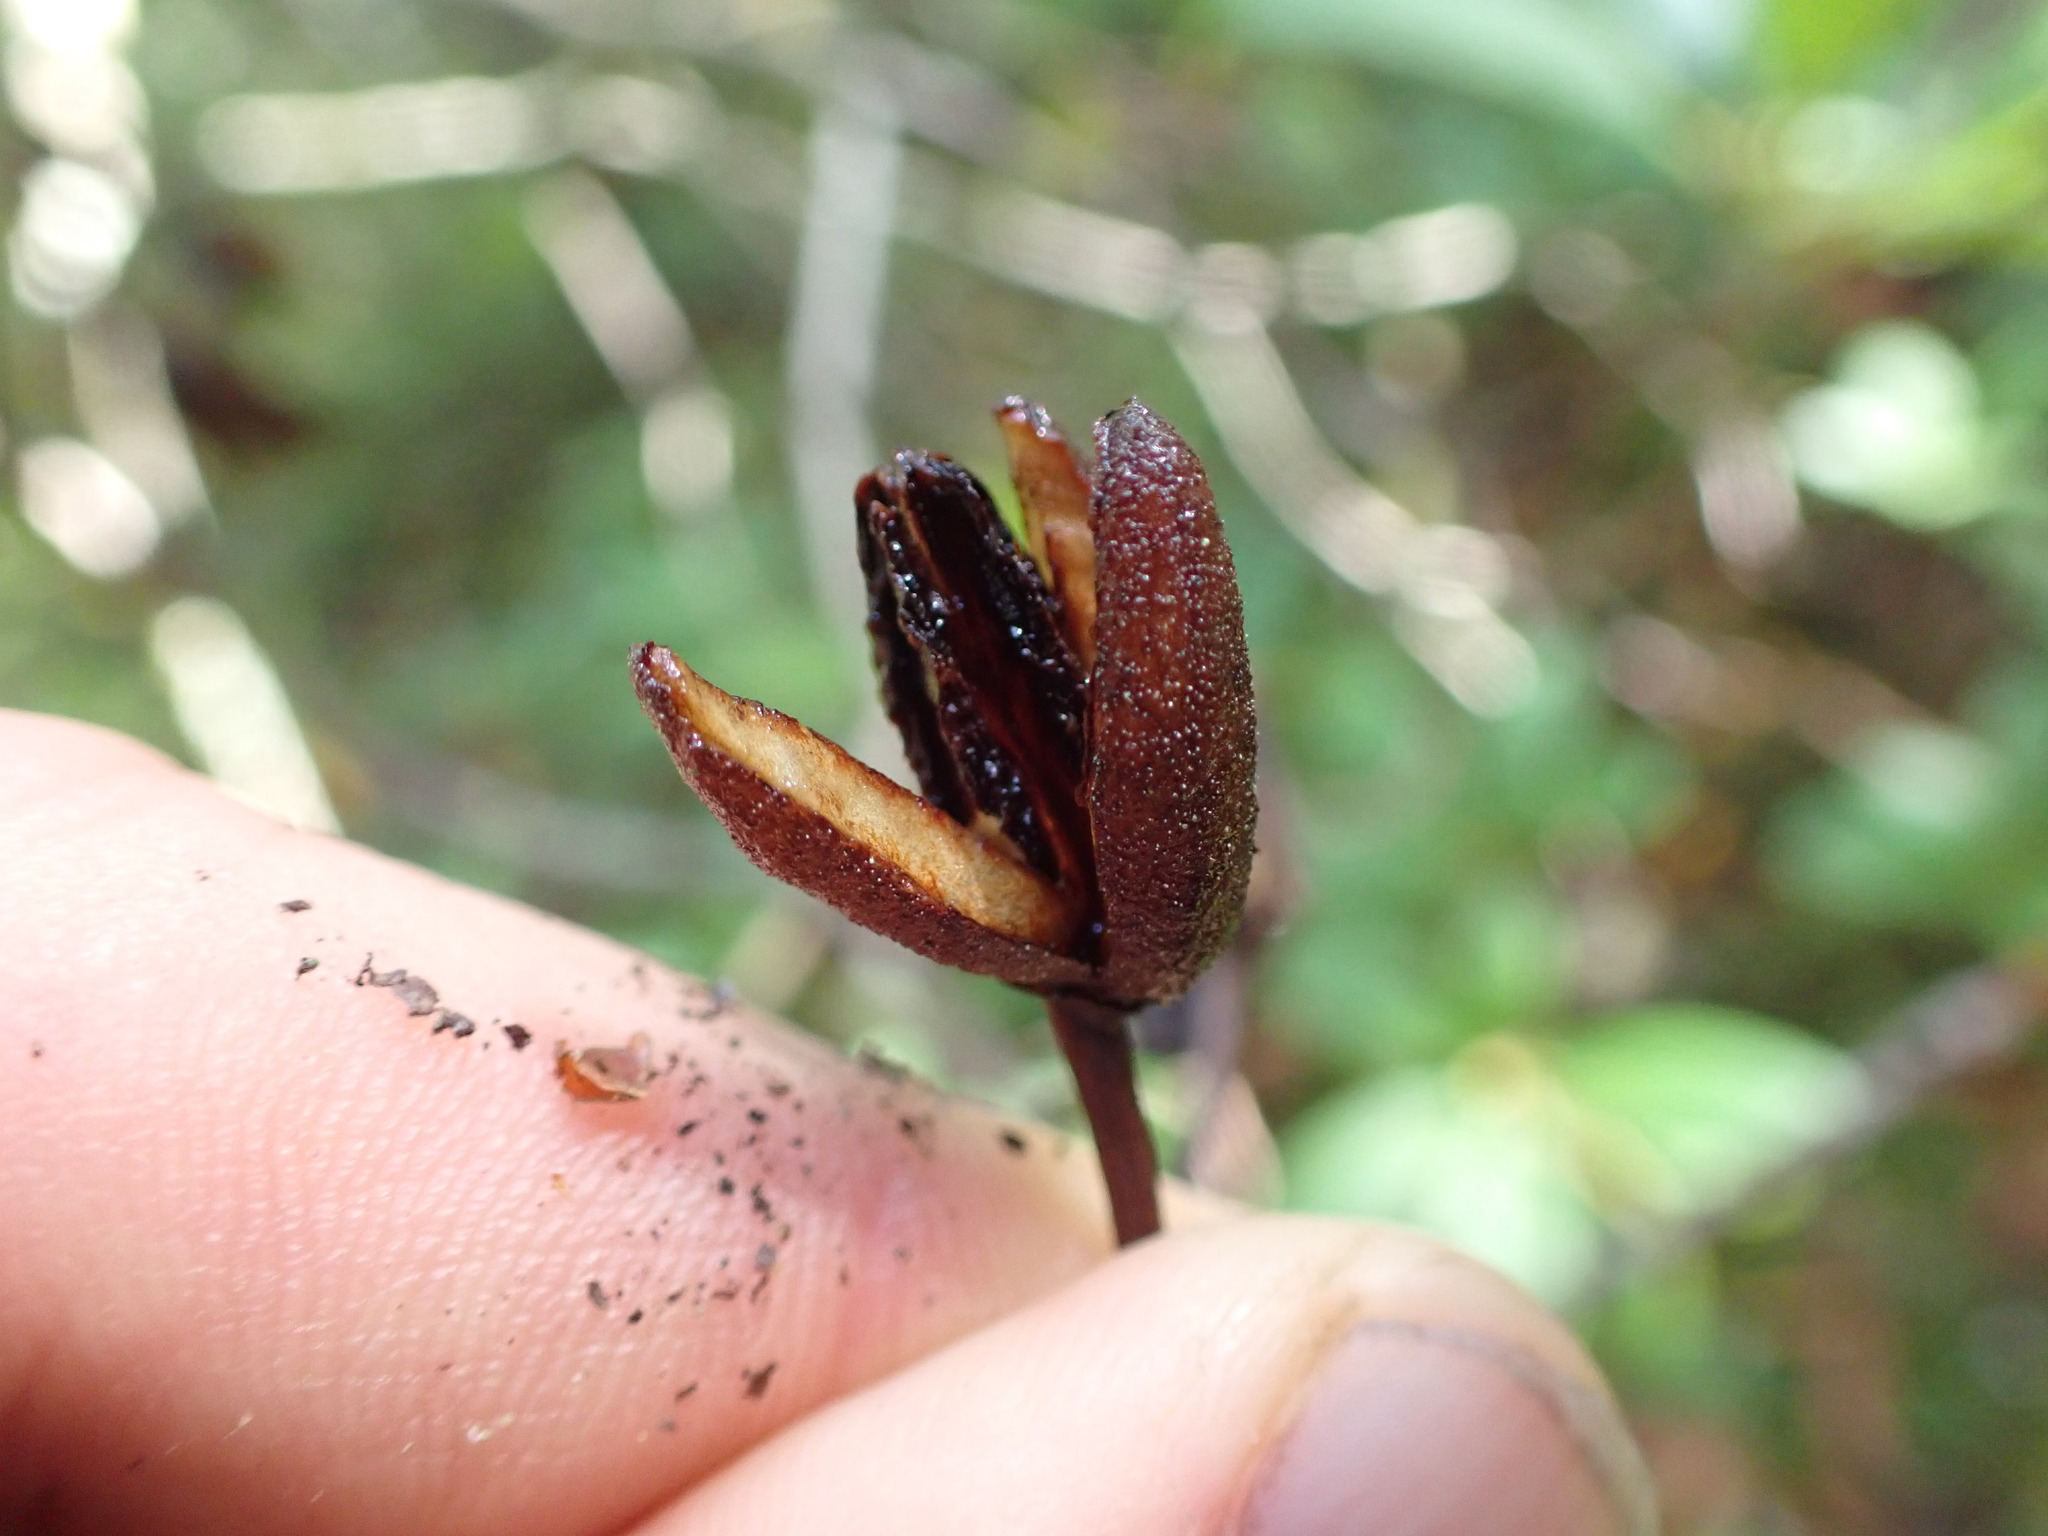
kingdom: Plantae
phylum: Tracheophyta
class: Magnoliopsida
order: Ericales
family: Ericaceae
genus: Rhododendron
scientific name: Rhododendron macrophyllum
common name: California rose bay
